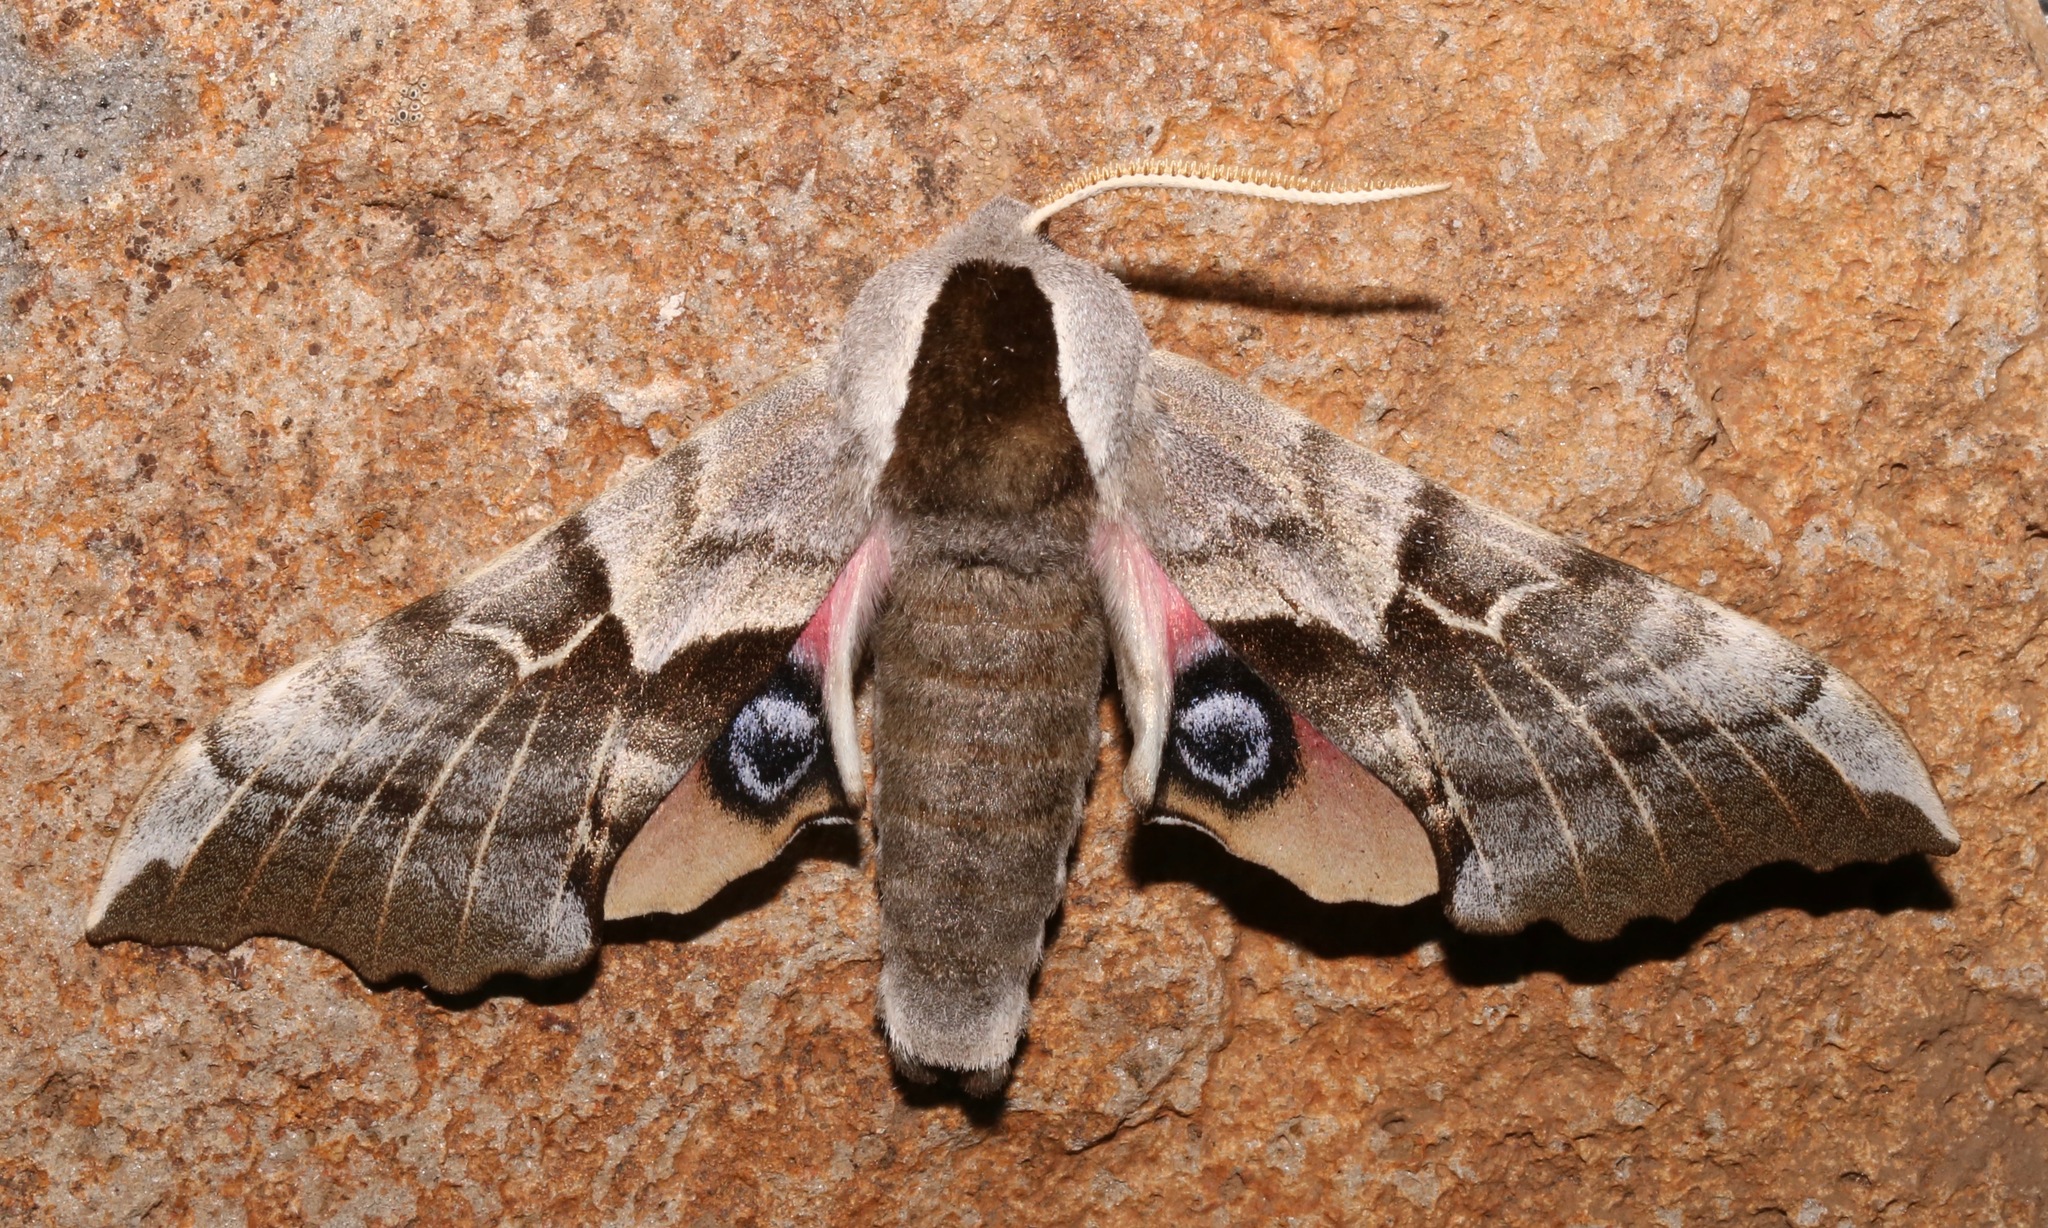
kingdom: Animalia
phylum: Arthropoda
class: Insecta
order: Lepidoptera
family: Sphingidae
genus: Smerinthus
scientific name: Smerinthus cerisyi
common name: Cerisy's sphinx moth
